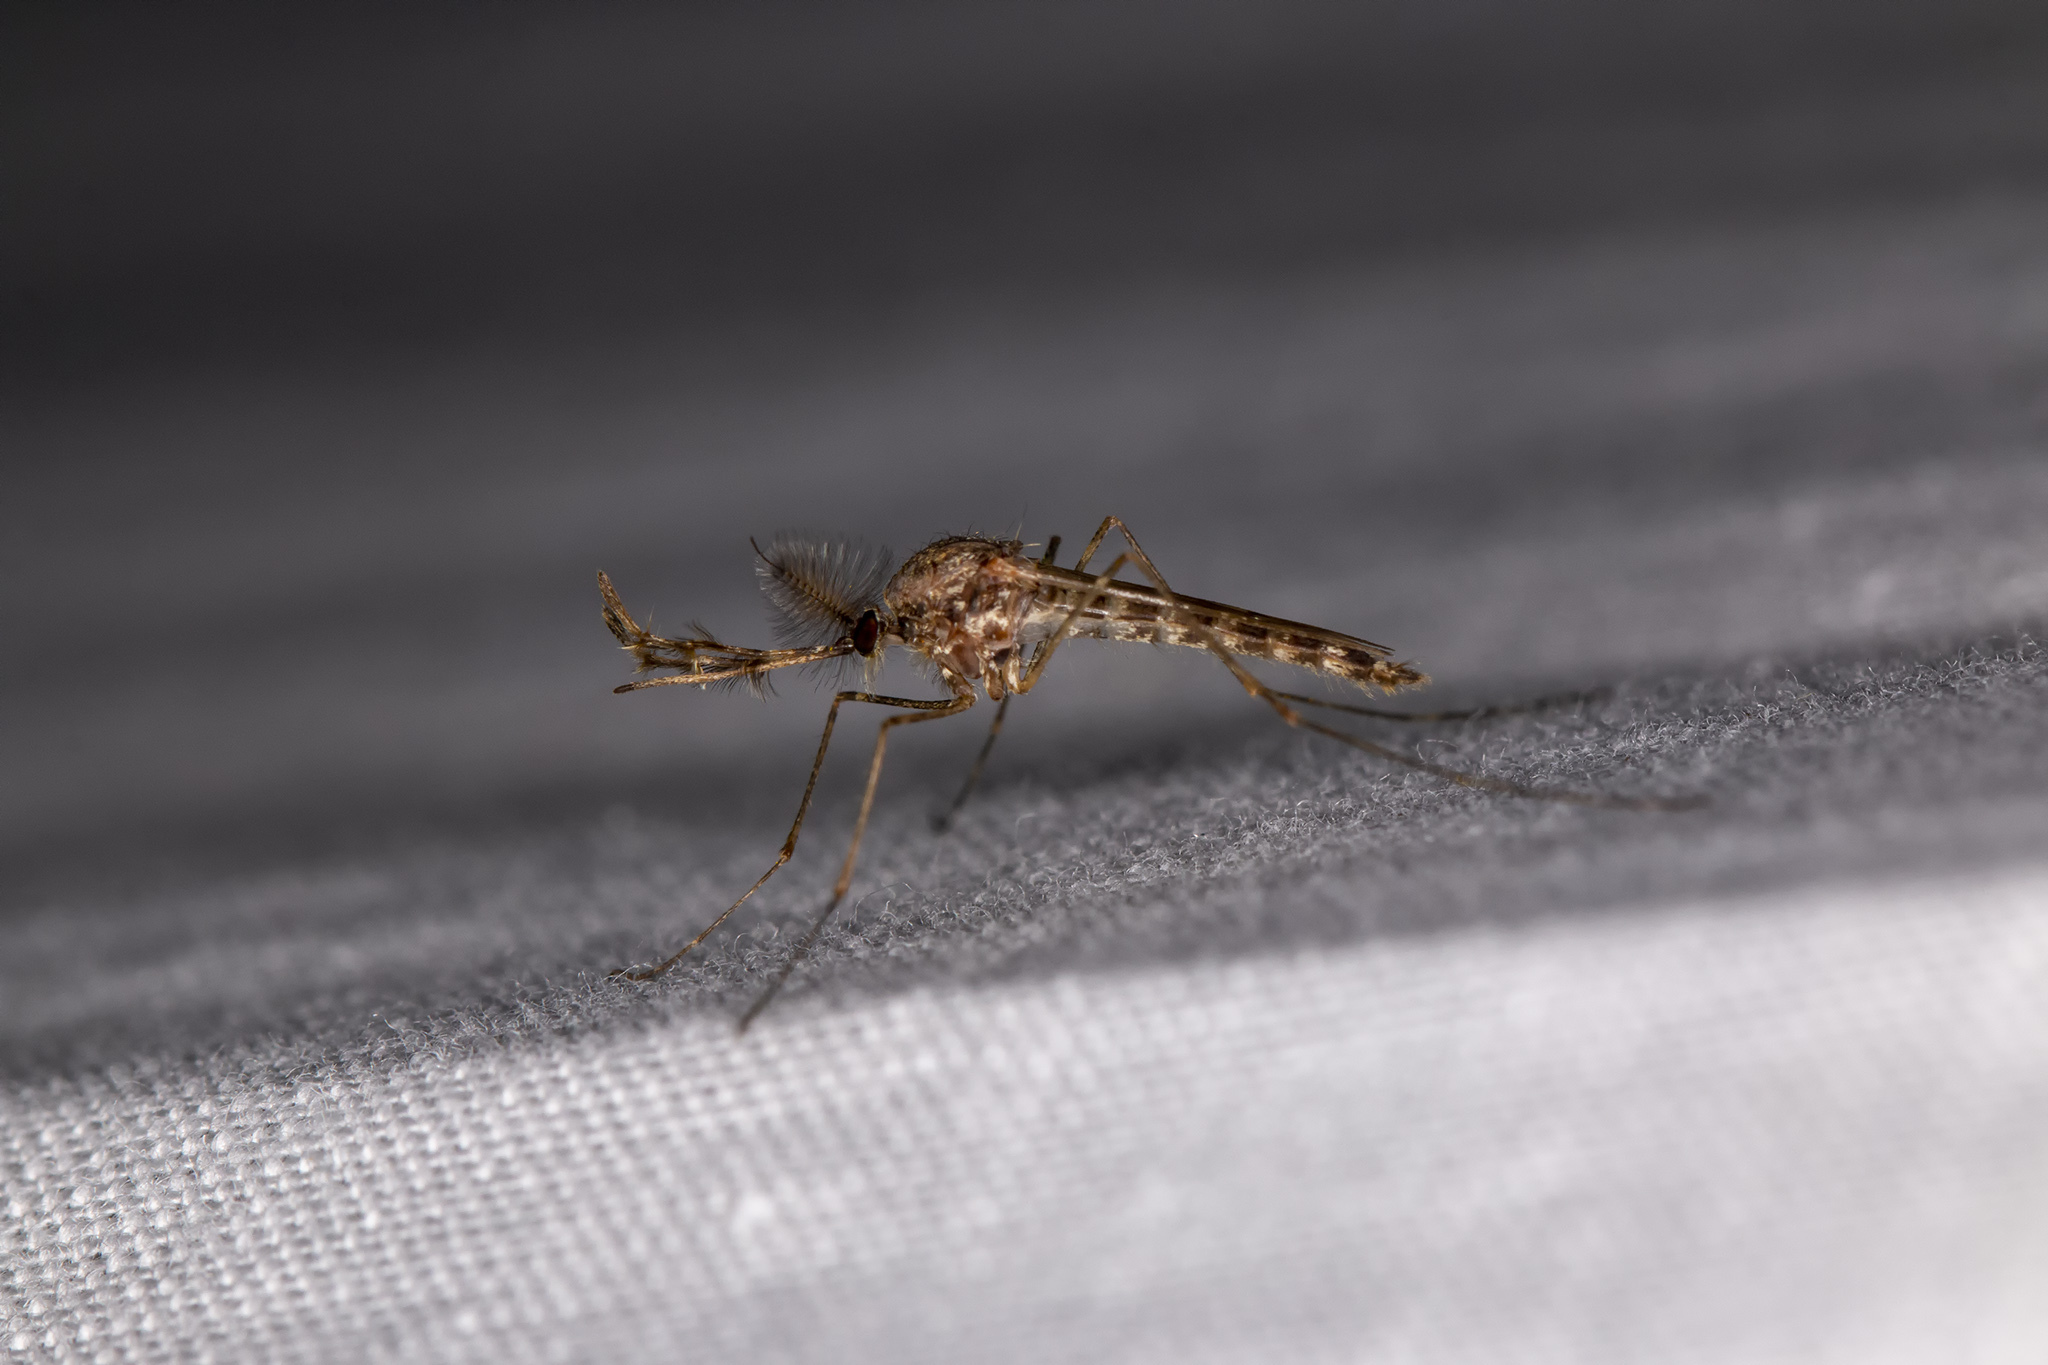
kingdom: Animalia
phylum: Arthropoda
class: Insecta
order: Diptera
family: Culicidae
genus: Culiseta
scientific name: Culiseta annulata
